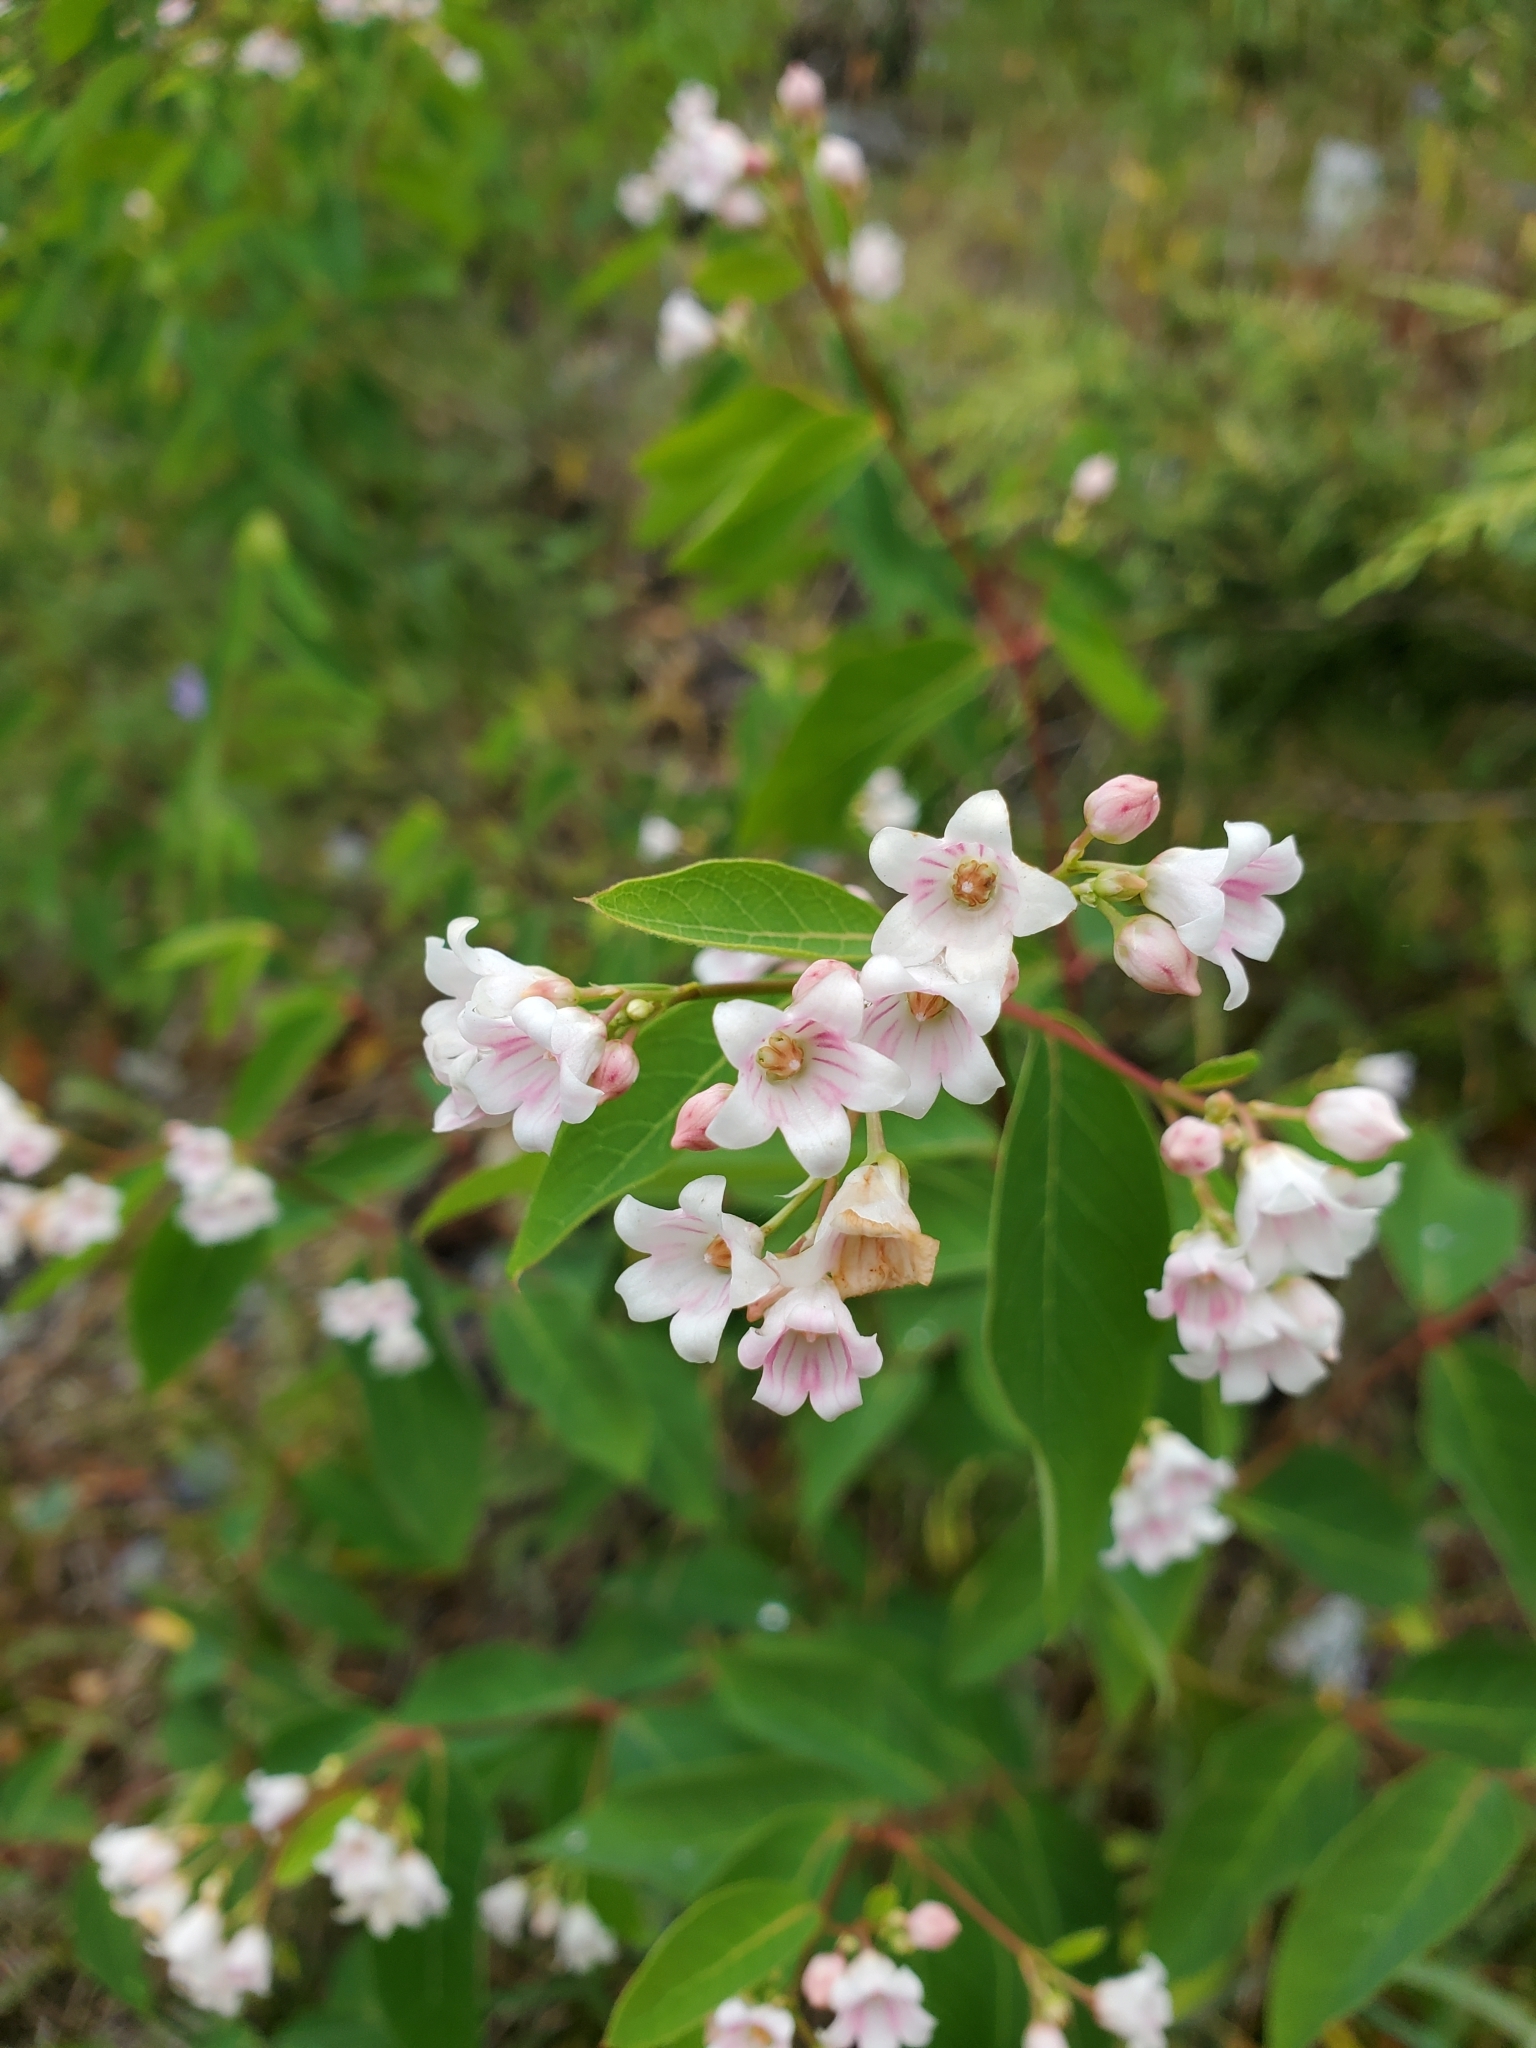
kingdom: Plantae
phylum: Tracheophyta
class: Magnoliopsida
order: Gentianales
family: Apocynaceae
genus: Apocynum
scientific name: Apocynum androsaemifolium
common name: Spreading dogbane
